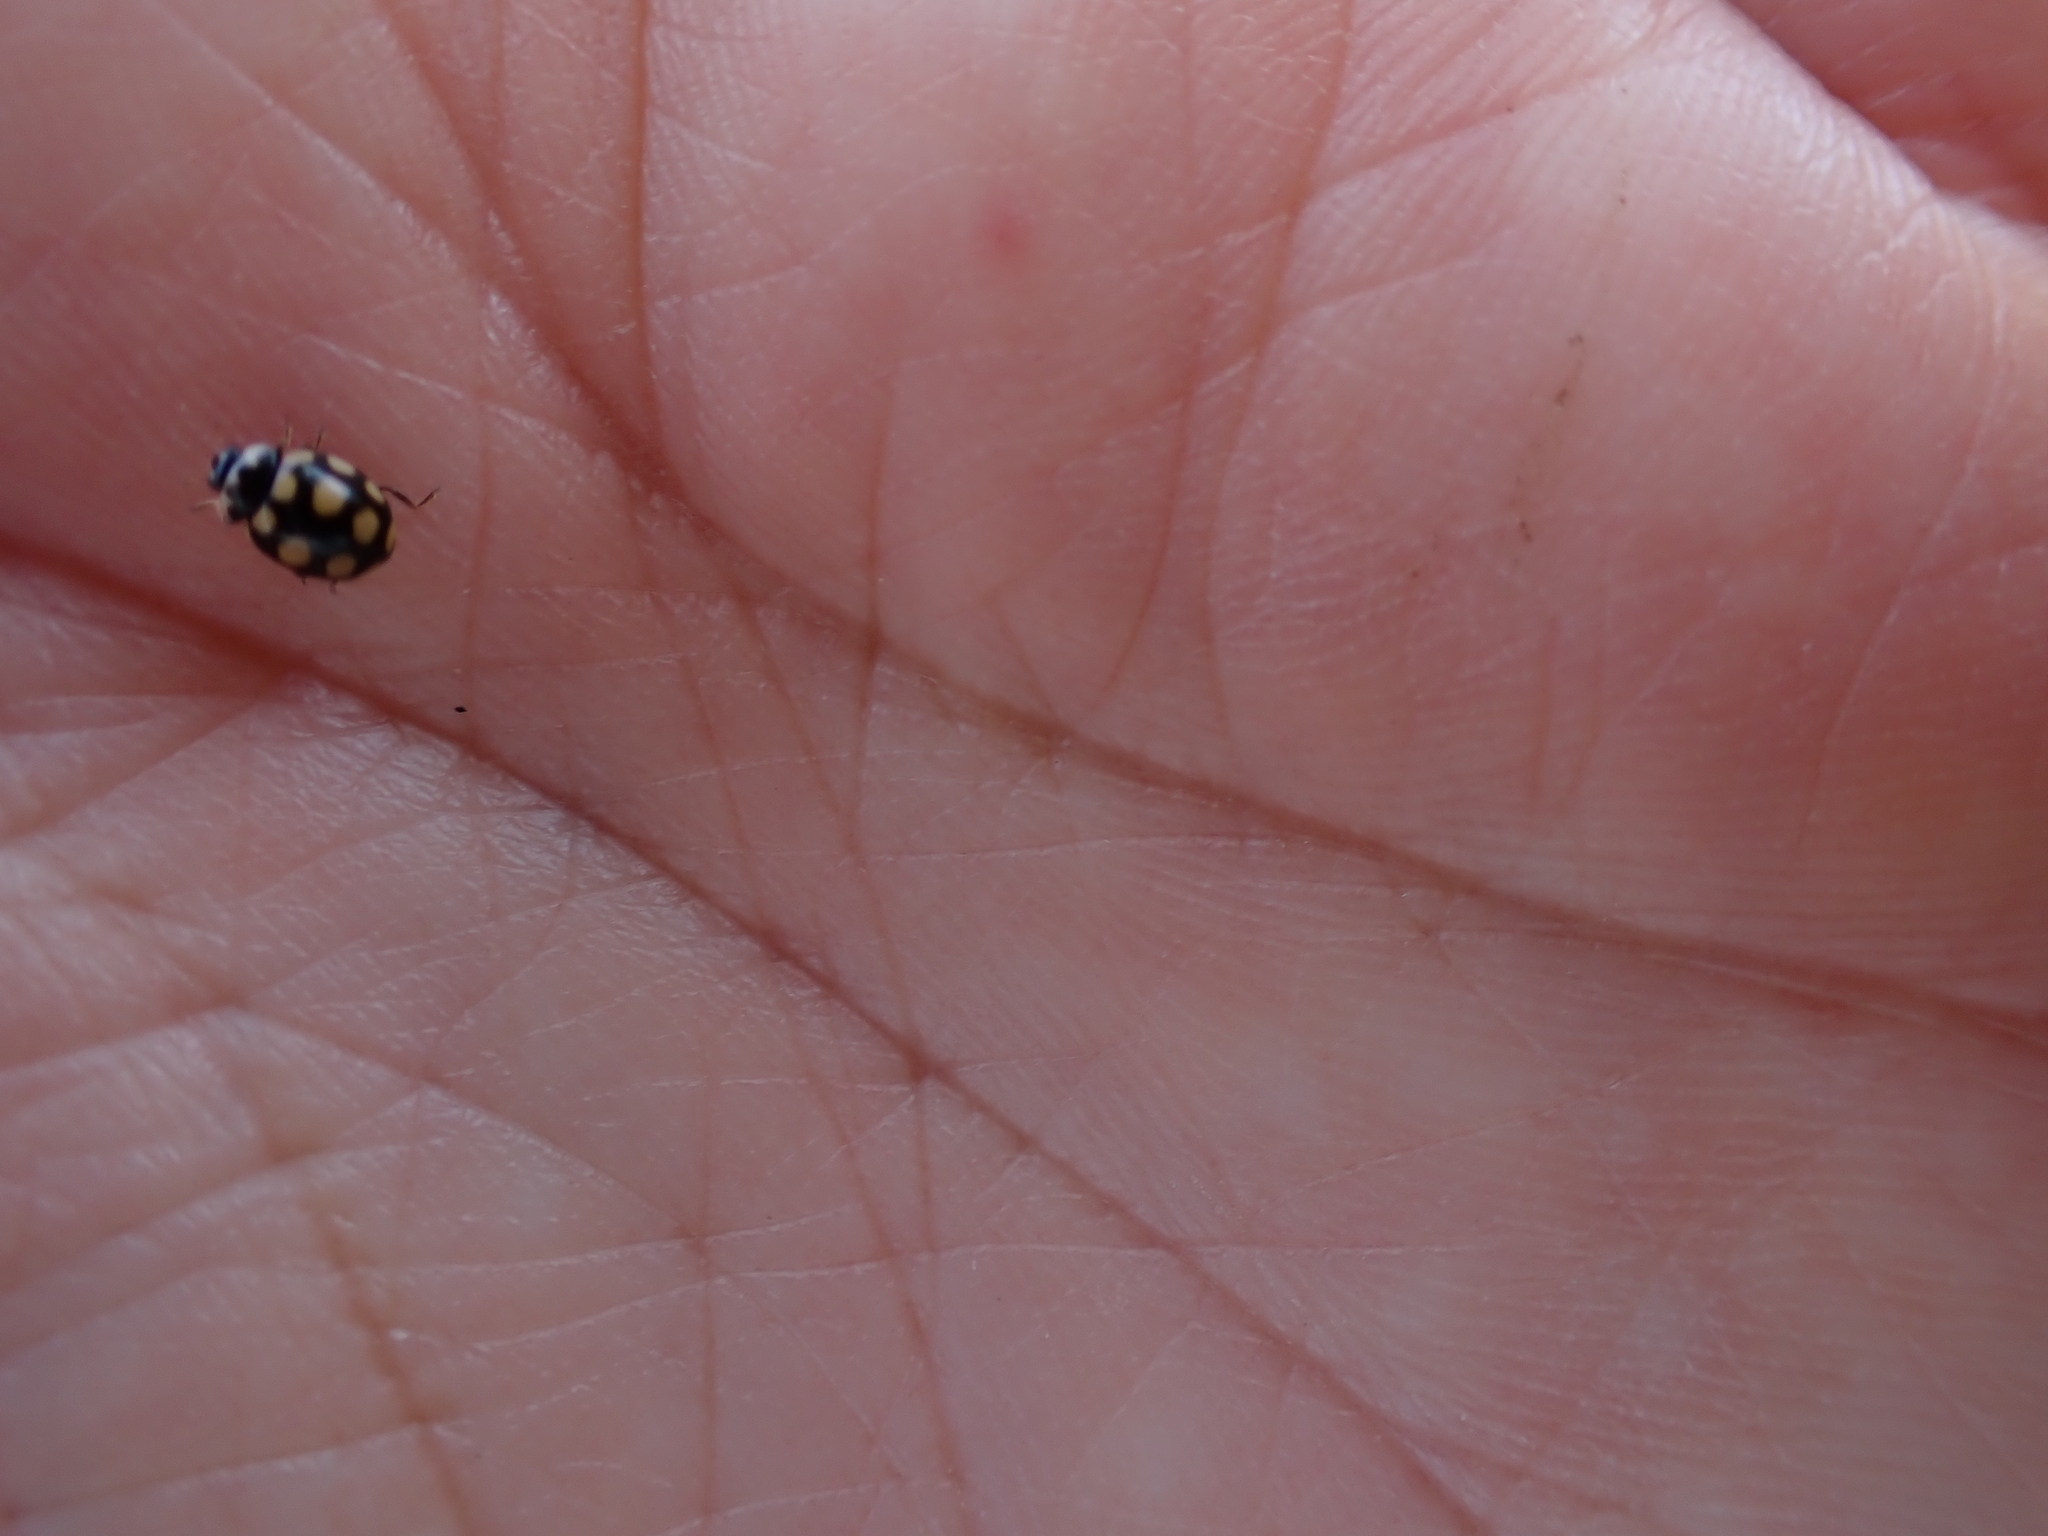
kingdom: Animalia
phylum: Arthropoda
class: Insecta
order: Coleoptera
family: Coccinellidae
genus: Coccinula
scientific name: Coccinula quatuordecimpustulata
